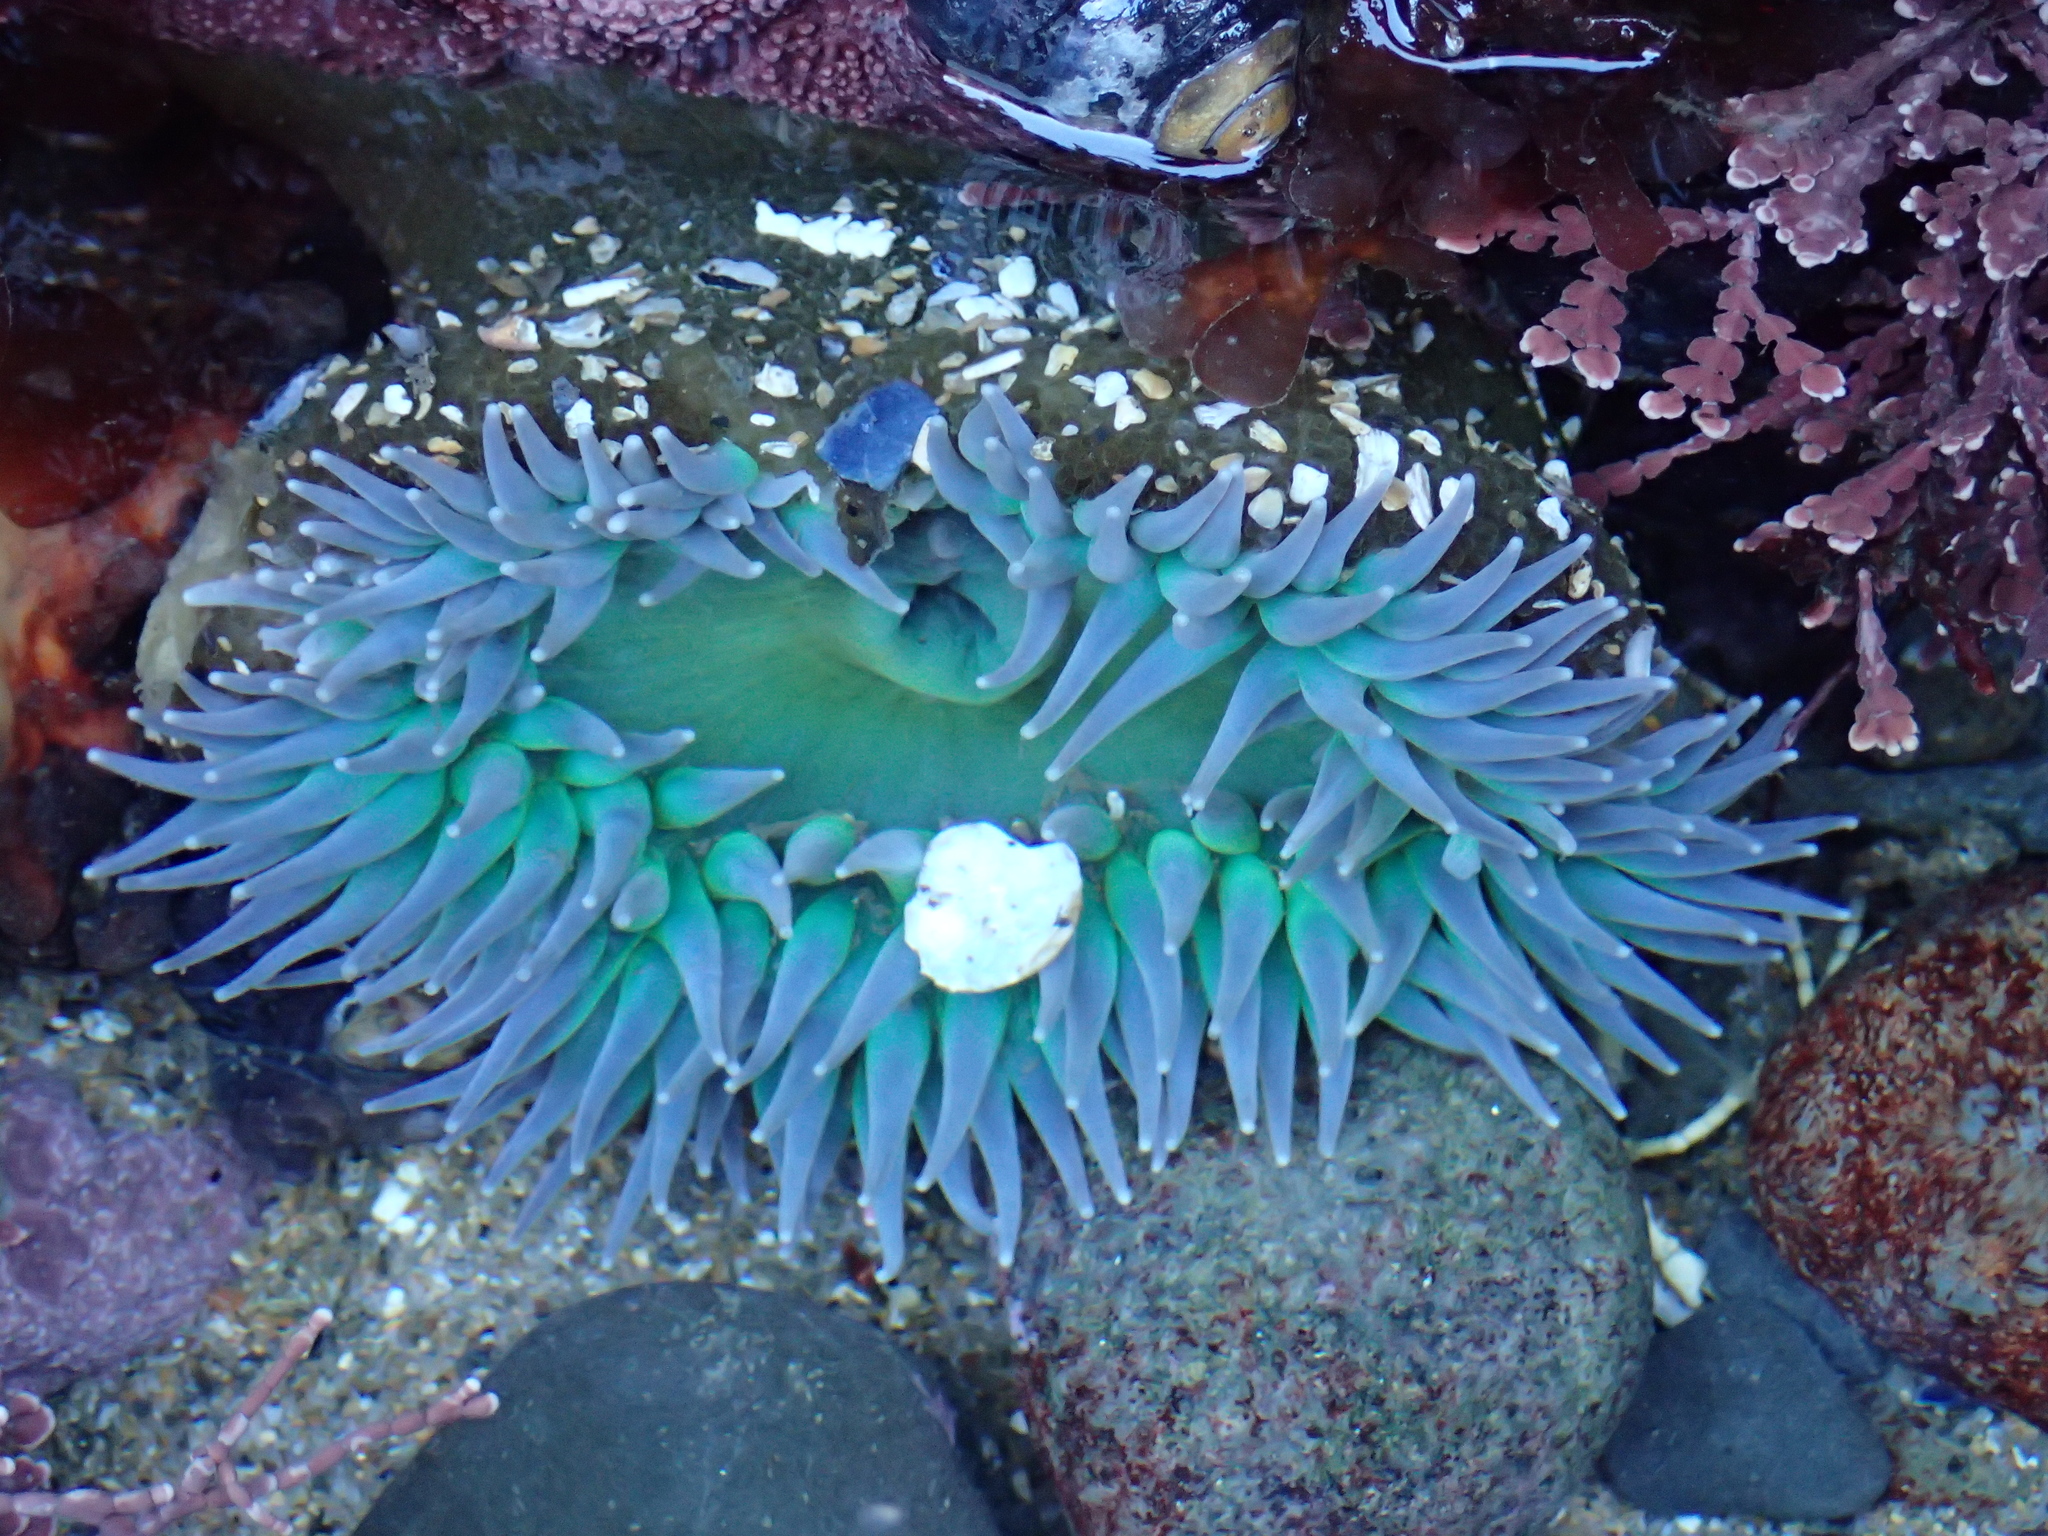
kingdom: Animalia
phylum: Cnidaria
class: Anthozoa
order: Actiniaria
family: Actiniidae
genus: Anthopleura
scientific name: Anthopleura xanthogrammica
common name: Giant green anemone
